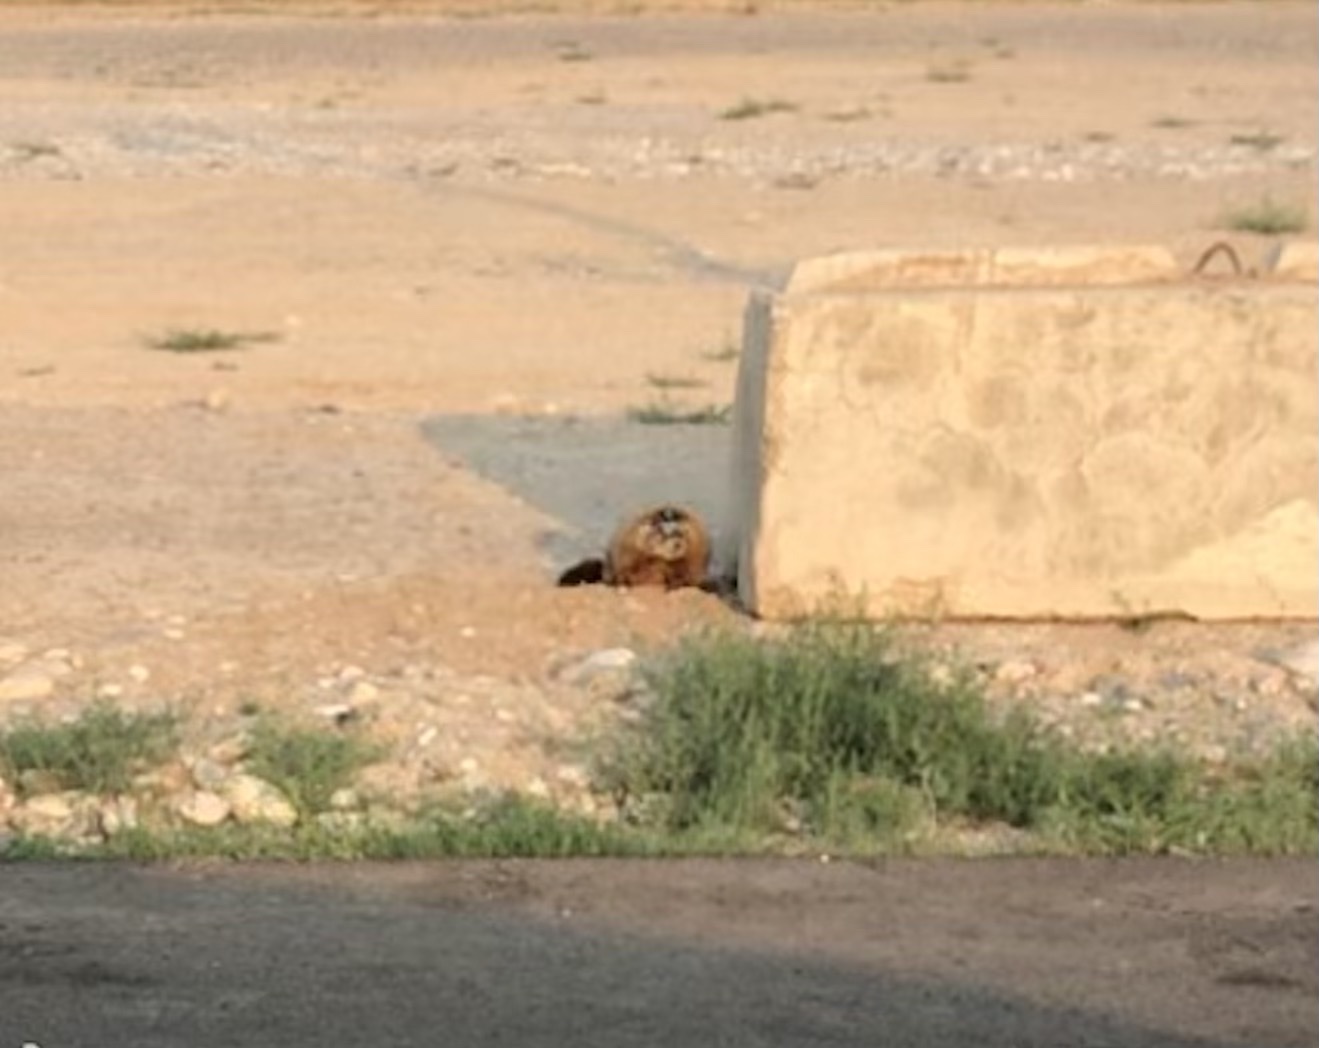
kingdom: Animalia
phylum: Chordata
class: Mammalia
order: Rodentia
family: Sciuridae
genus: Marmota
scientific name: Marmota flaviventris
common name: Yellow-bellied marmot
